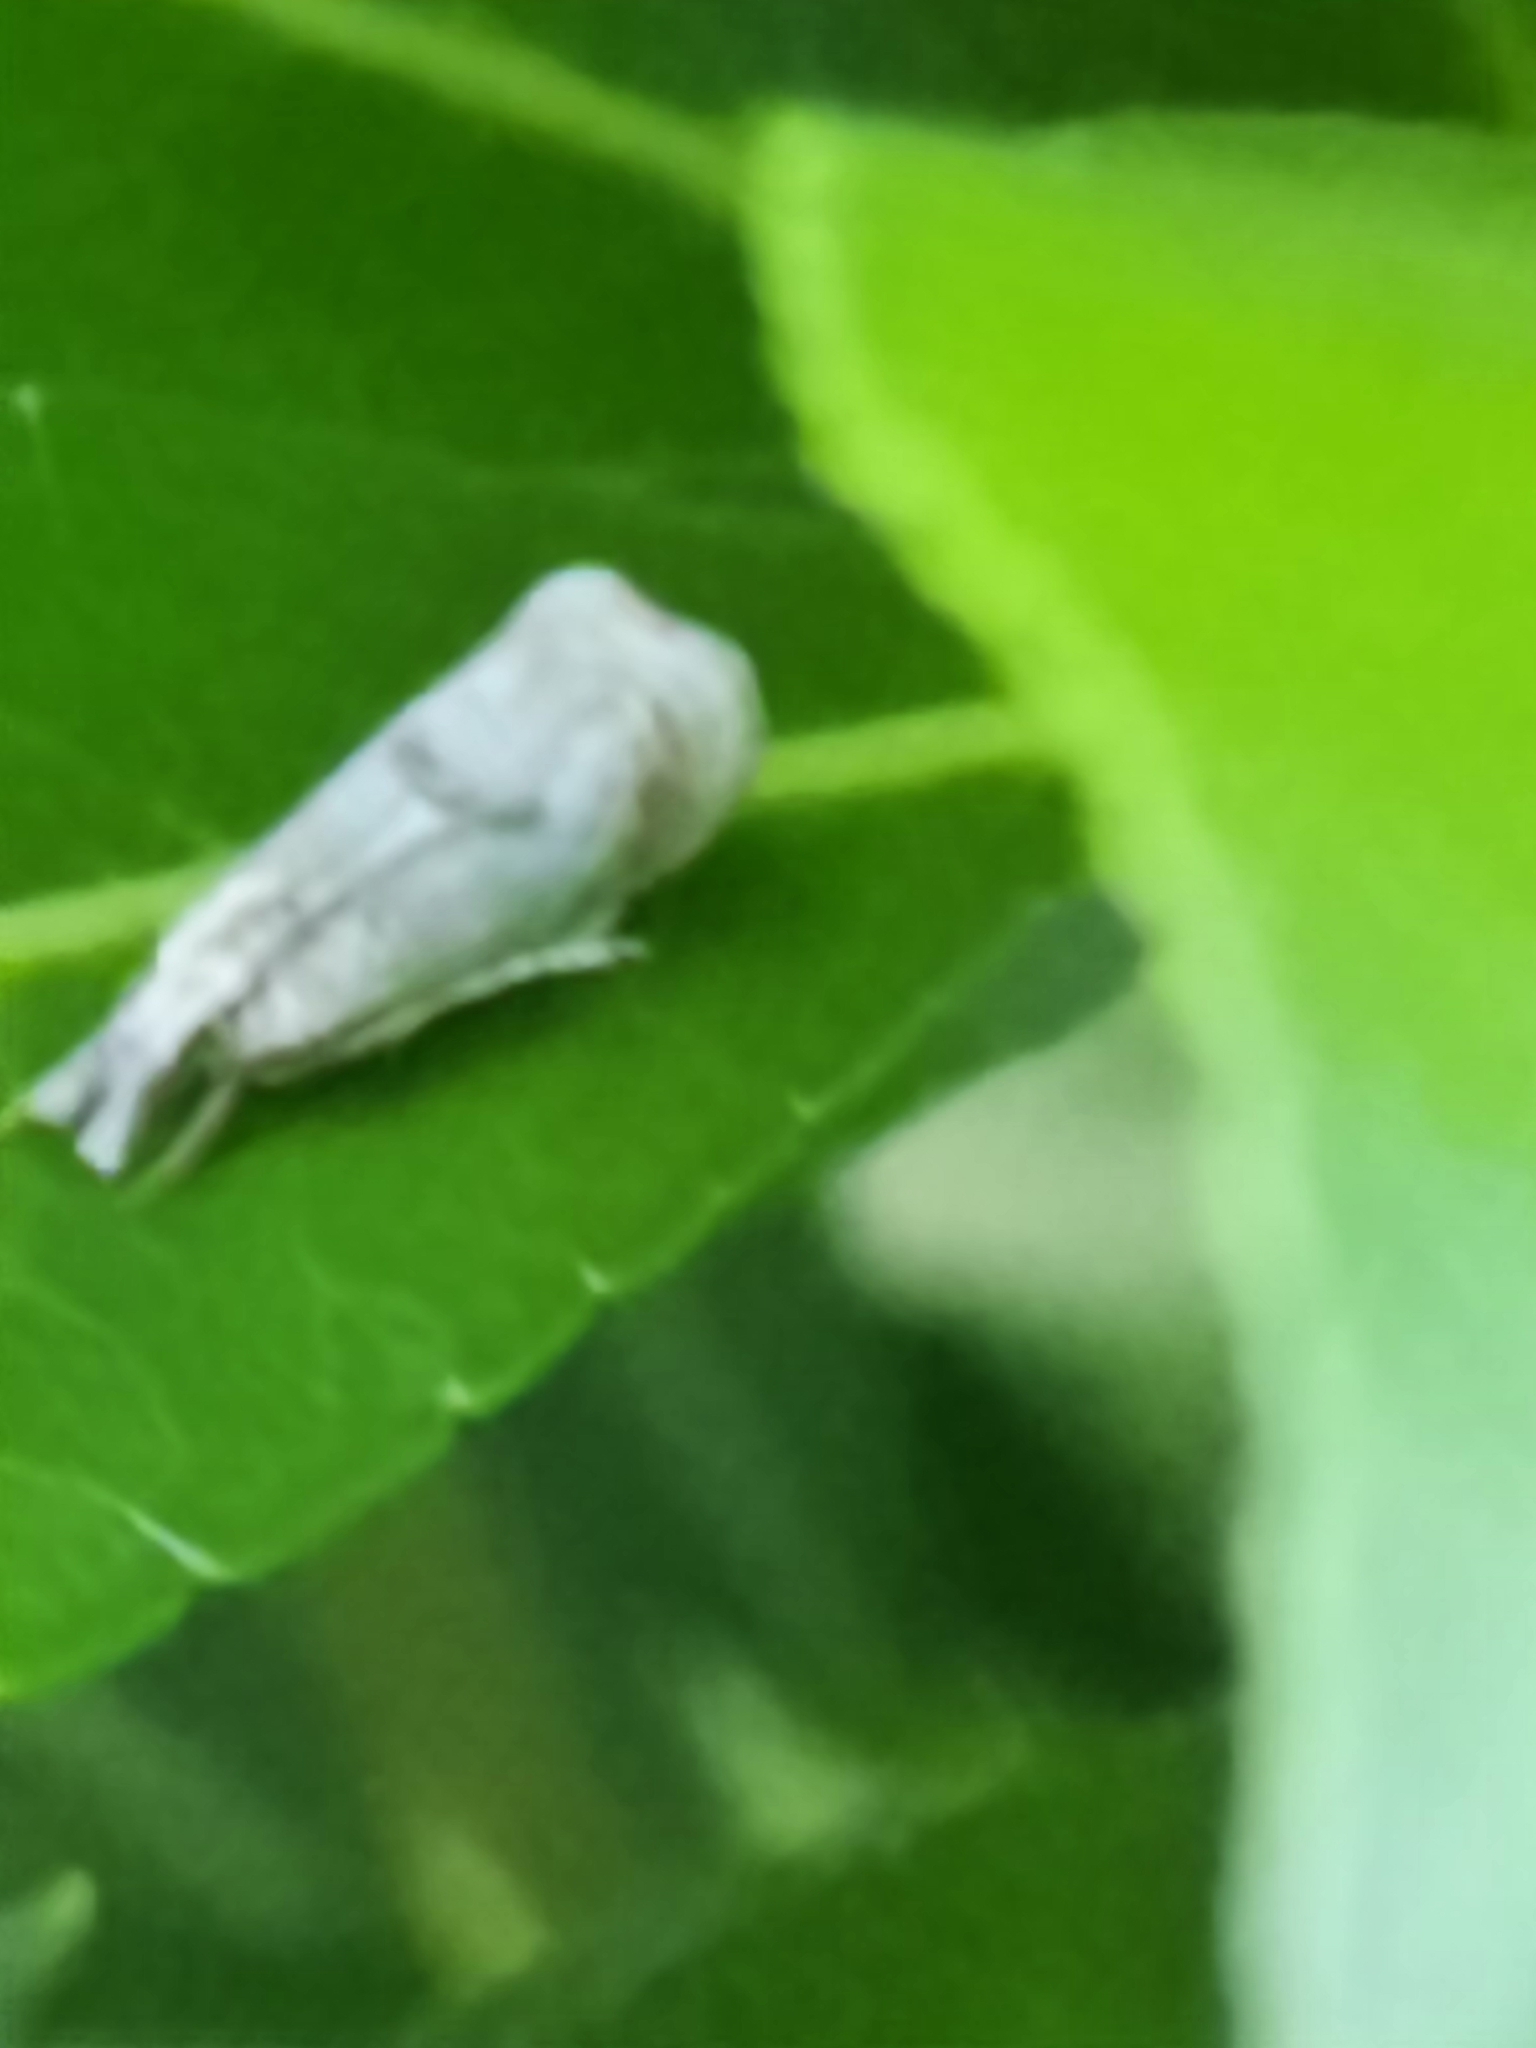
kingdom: Animalia
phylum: Arthropoda
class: Insecta
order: Lepidoptera
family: Crambidae
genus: Microcrambus
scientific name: Microcrambus elegans
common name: Elegant grass-veneer
